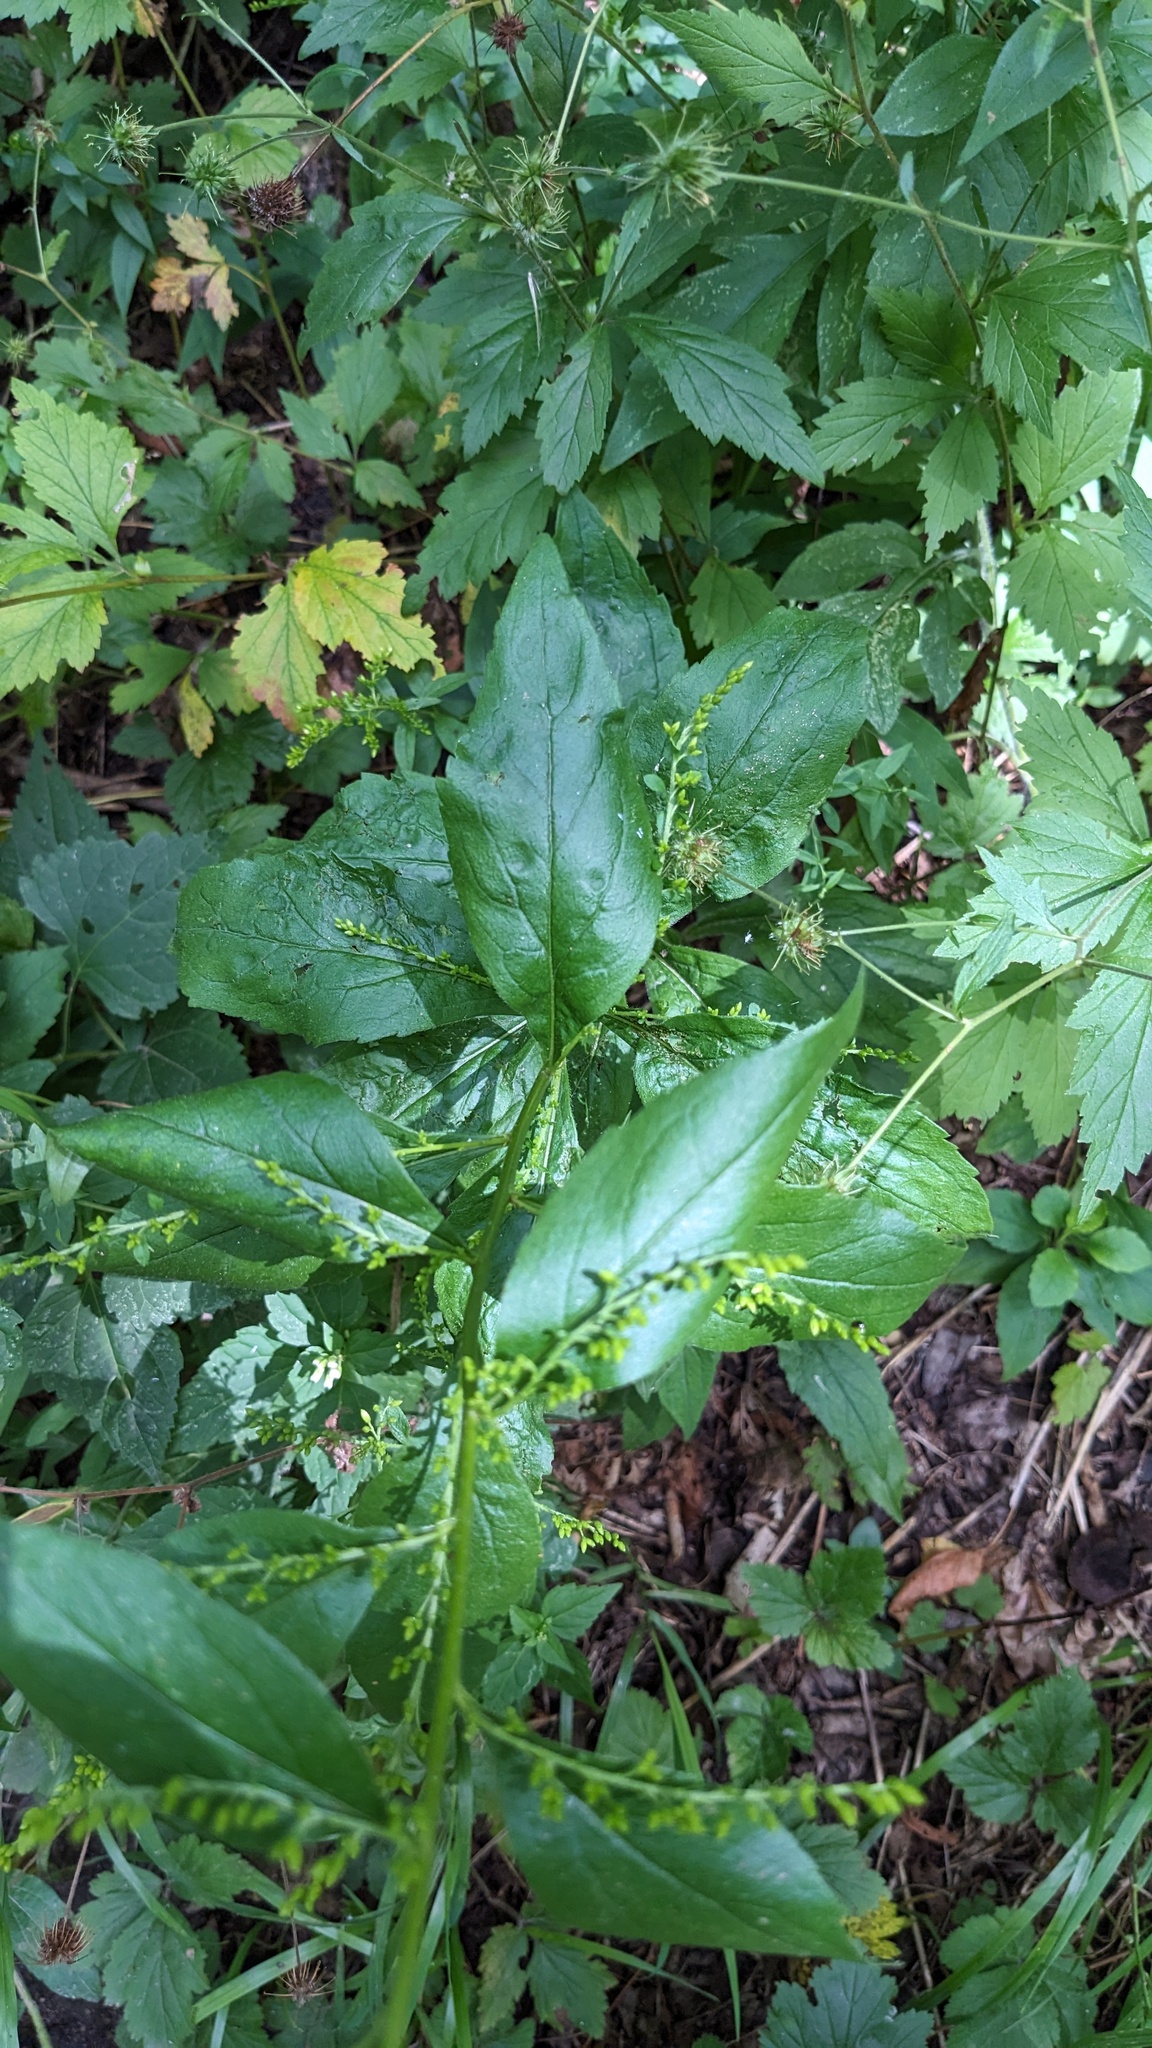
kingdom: Plantae
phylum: Tracheophyta
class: Magnoliopsida
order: Asterales
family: Asteraceae
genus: Solidago
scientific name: Solidago ulmifolia
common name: Elm-leaf goldenrod
